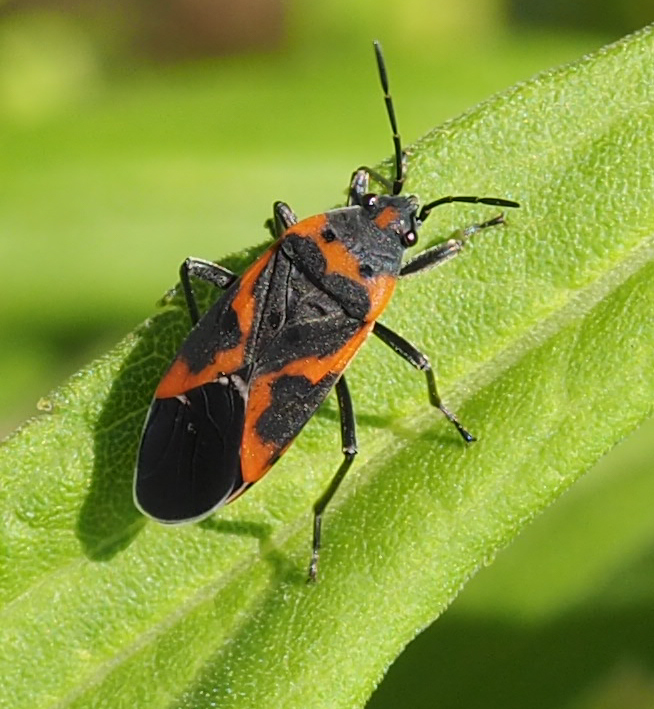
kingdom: Animalia
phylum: Arthropoda
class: Insecta
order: Hemiptera
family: Lygaeidae
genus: Lygaeus
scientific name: Lygaeus kalmii
